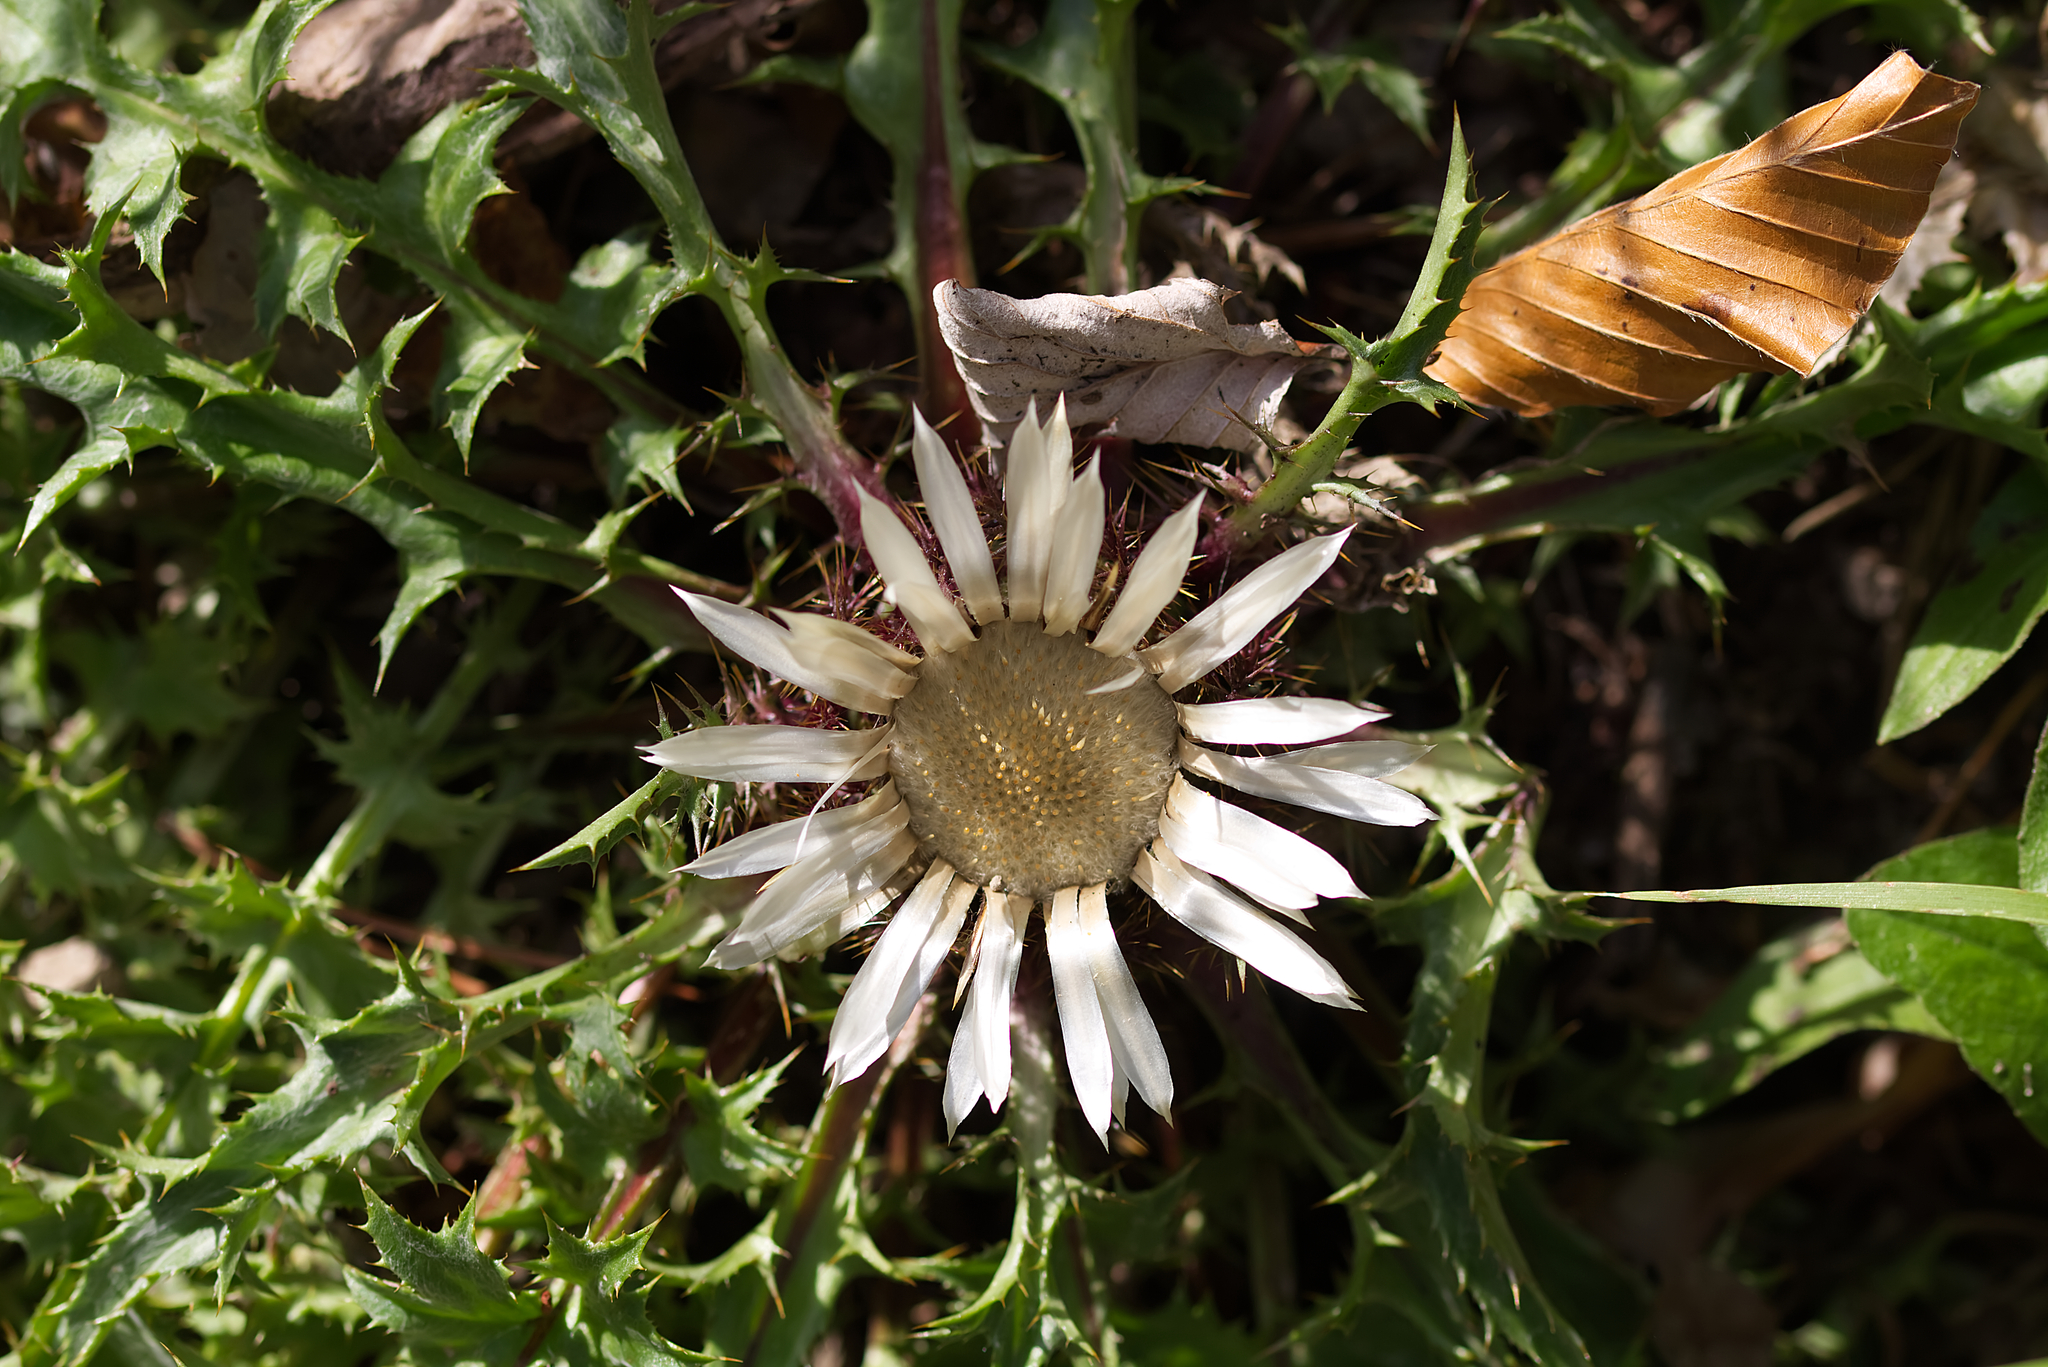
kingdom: Plantae
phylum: Tracheophyta
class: Magnoliopsida
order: Asterales
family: Asteraceae
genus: Carlina
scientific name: Carlina acaulis
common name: Stemless carline thistle
